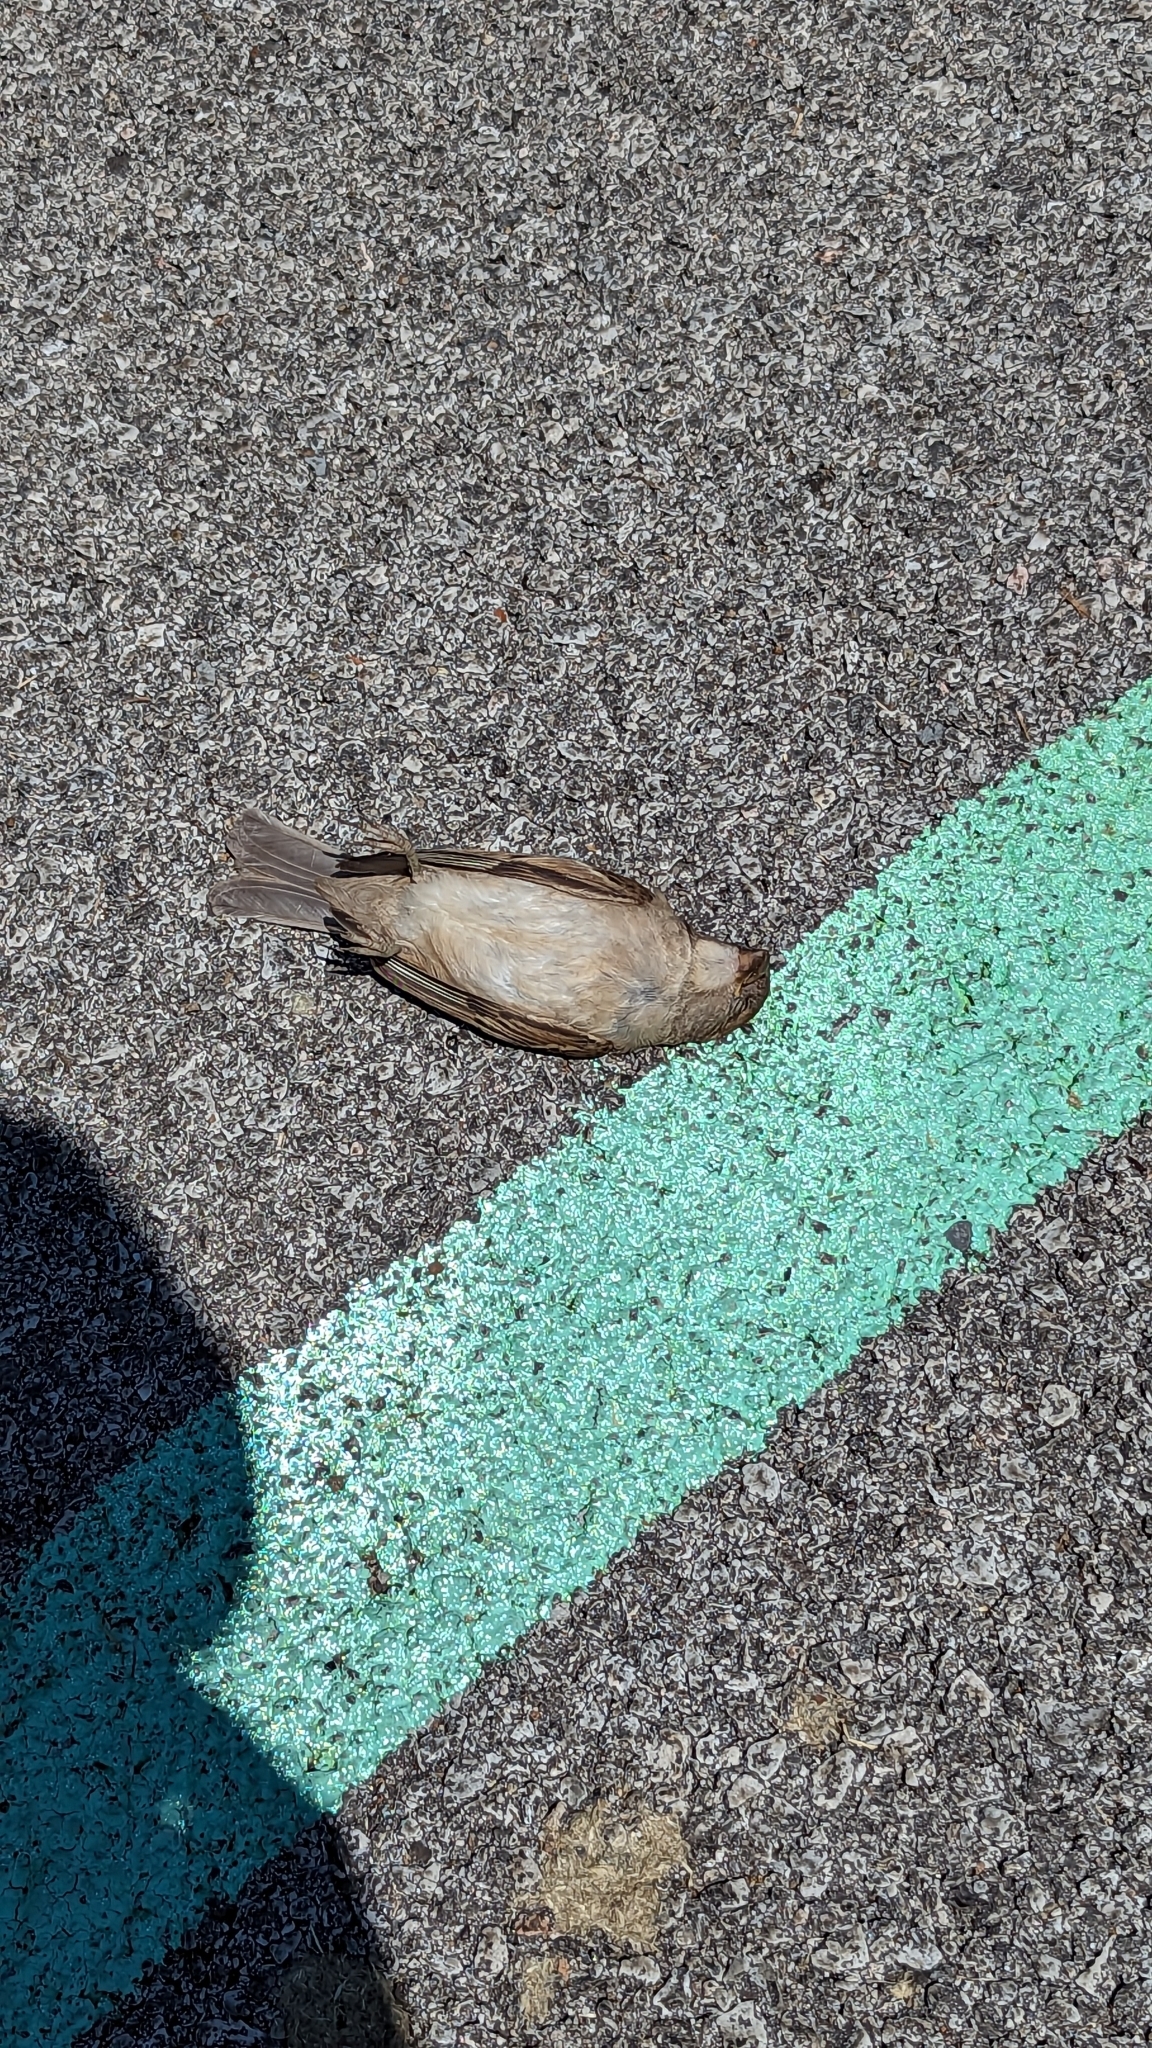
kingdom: Animalia
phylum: Chordata
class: Aves
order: Passeriformes
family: Passeridae
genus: Passer
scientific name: Passer domesticus
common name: House sparrow
